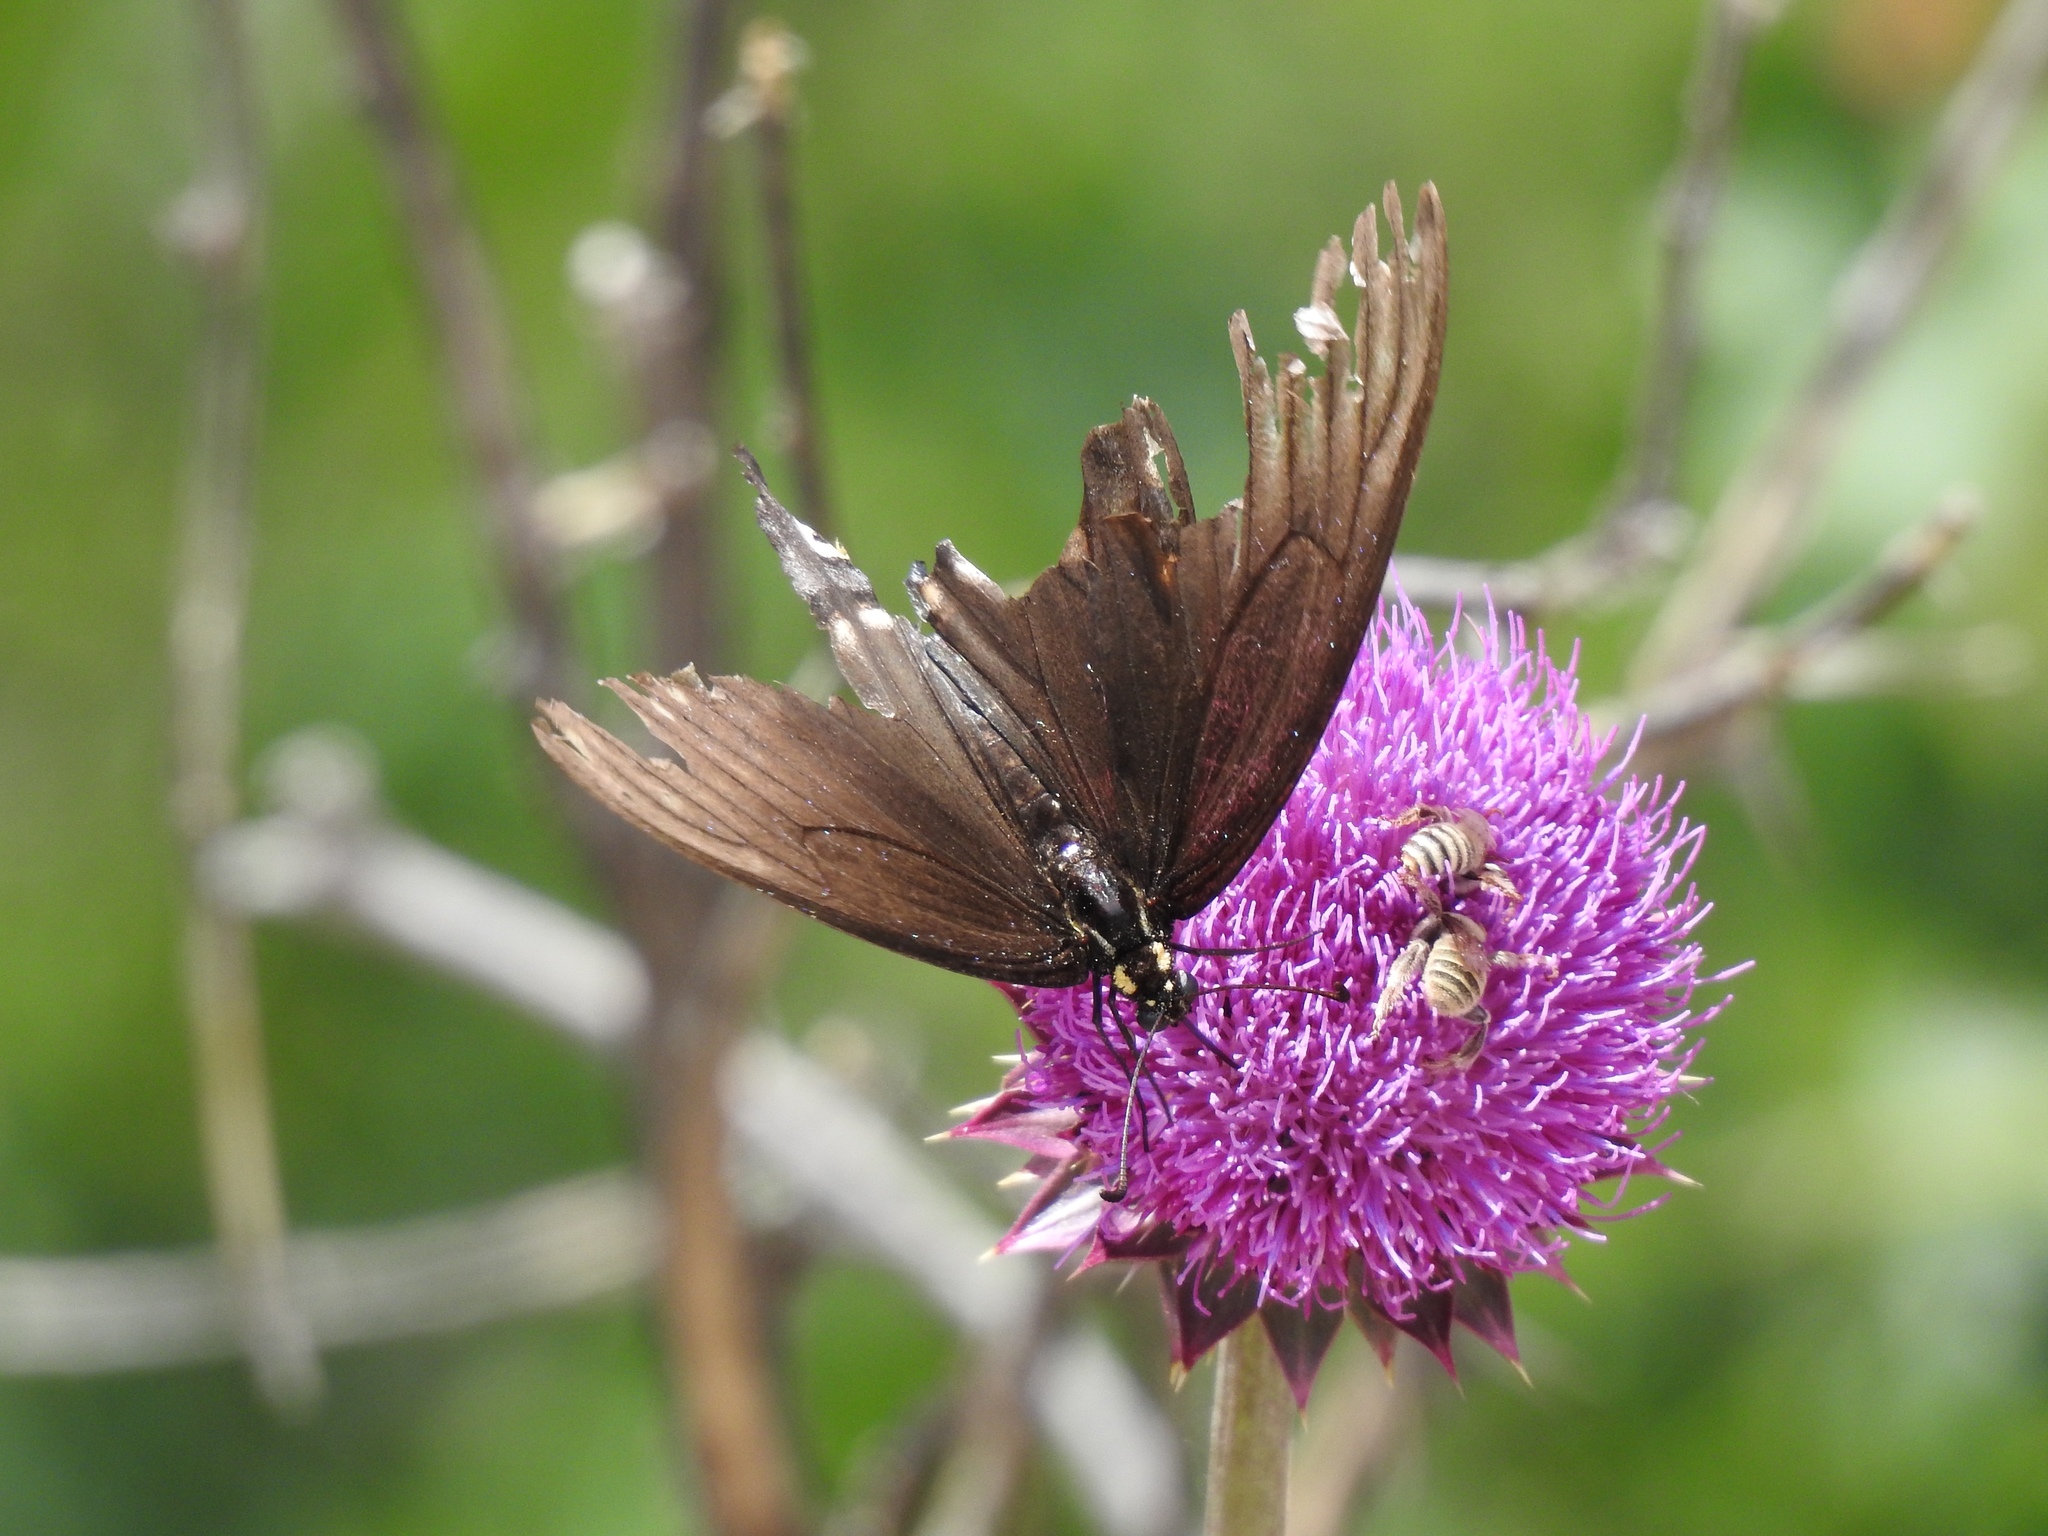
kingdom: Animalia
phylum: Arthropoda
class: Insecta
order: Lepidoptera
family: Papilionidae
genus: Papilio
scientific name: Papilio polyxenes
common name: Black swallowtail
